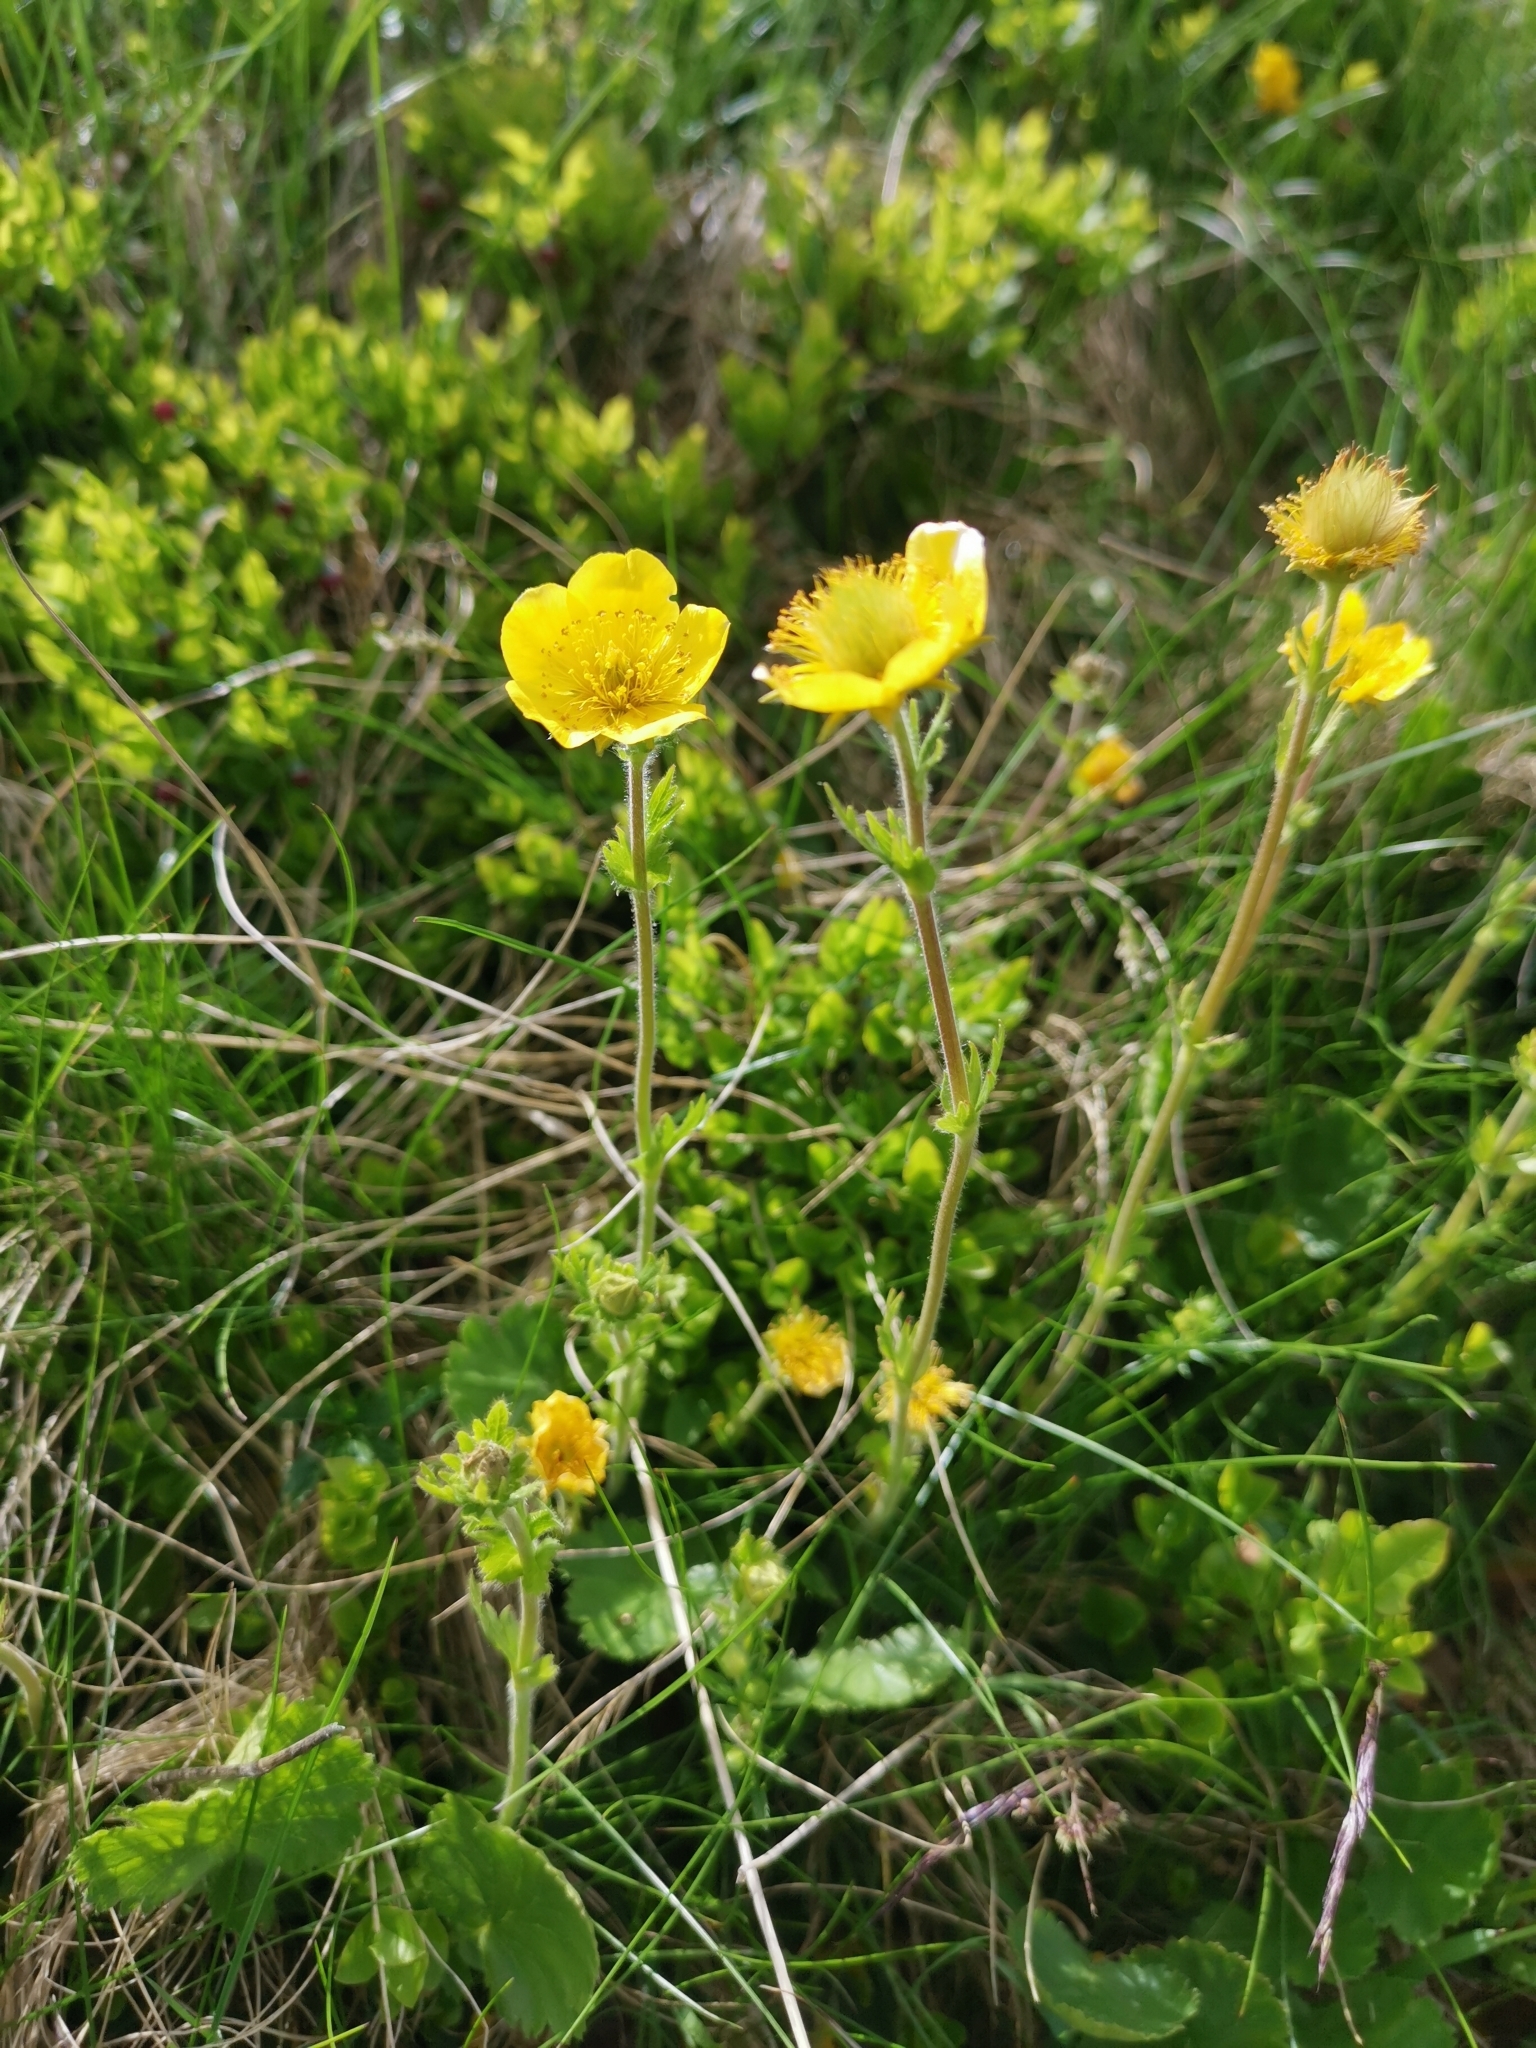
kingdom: Plantae
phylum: Tracheophyta
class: Magnoliopsida
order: Rosales
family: Rosaceae
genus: Geum
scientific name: Geum montanum
